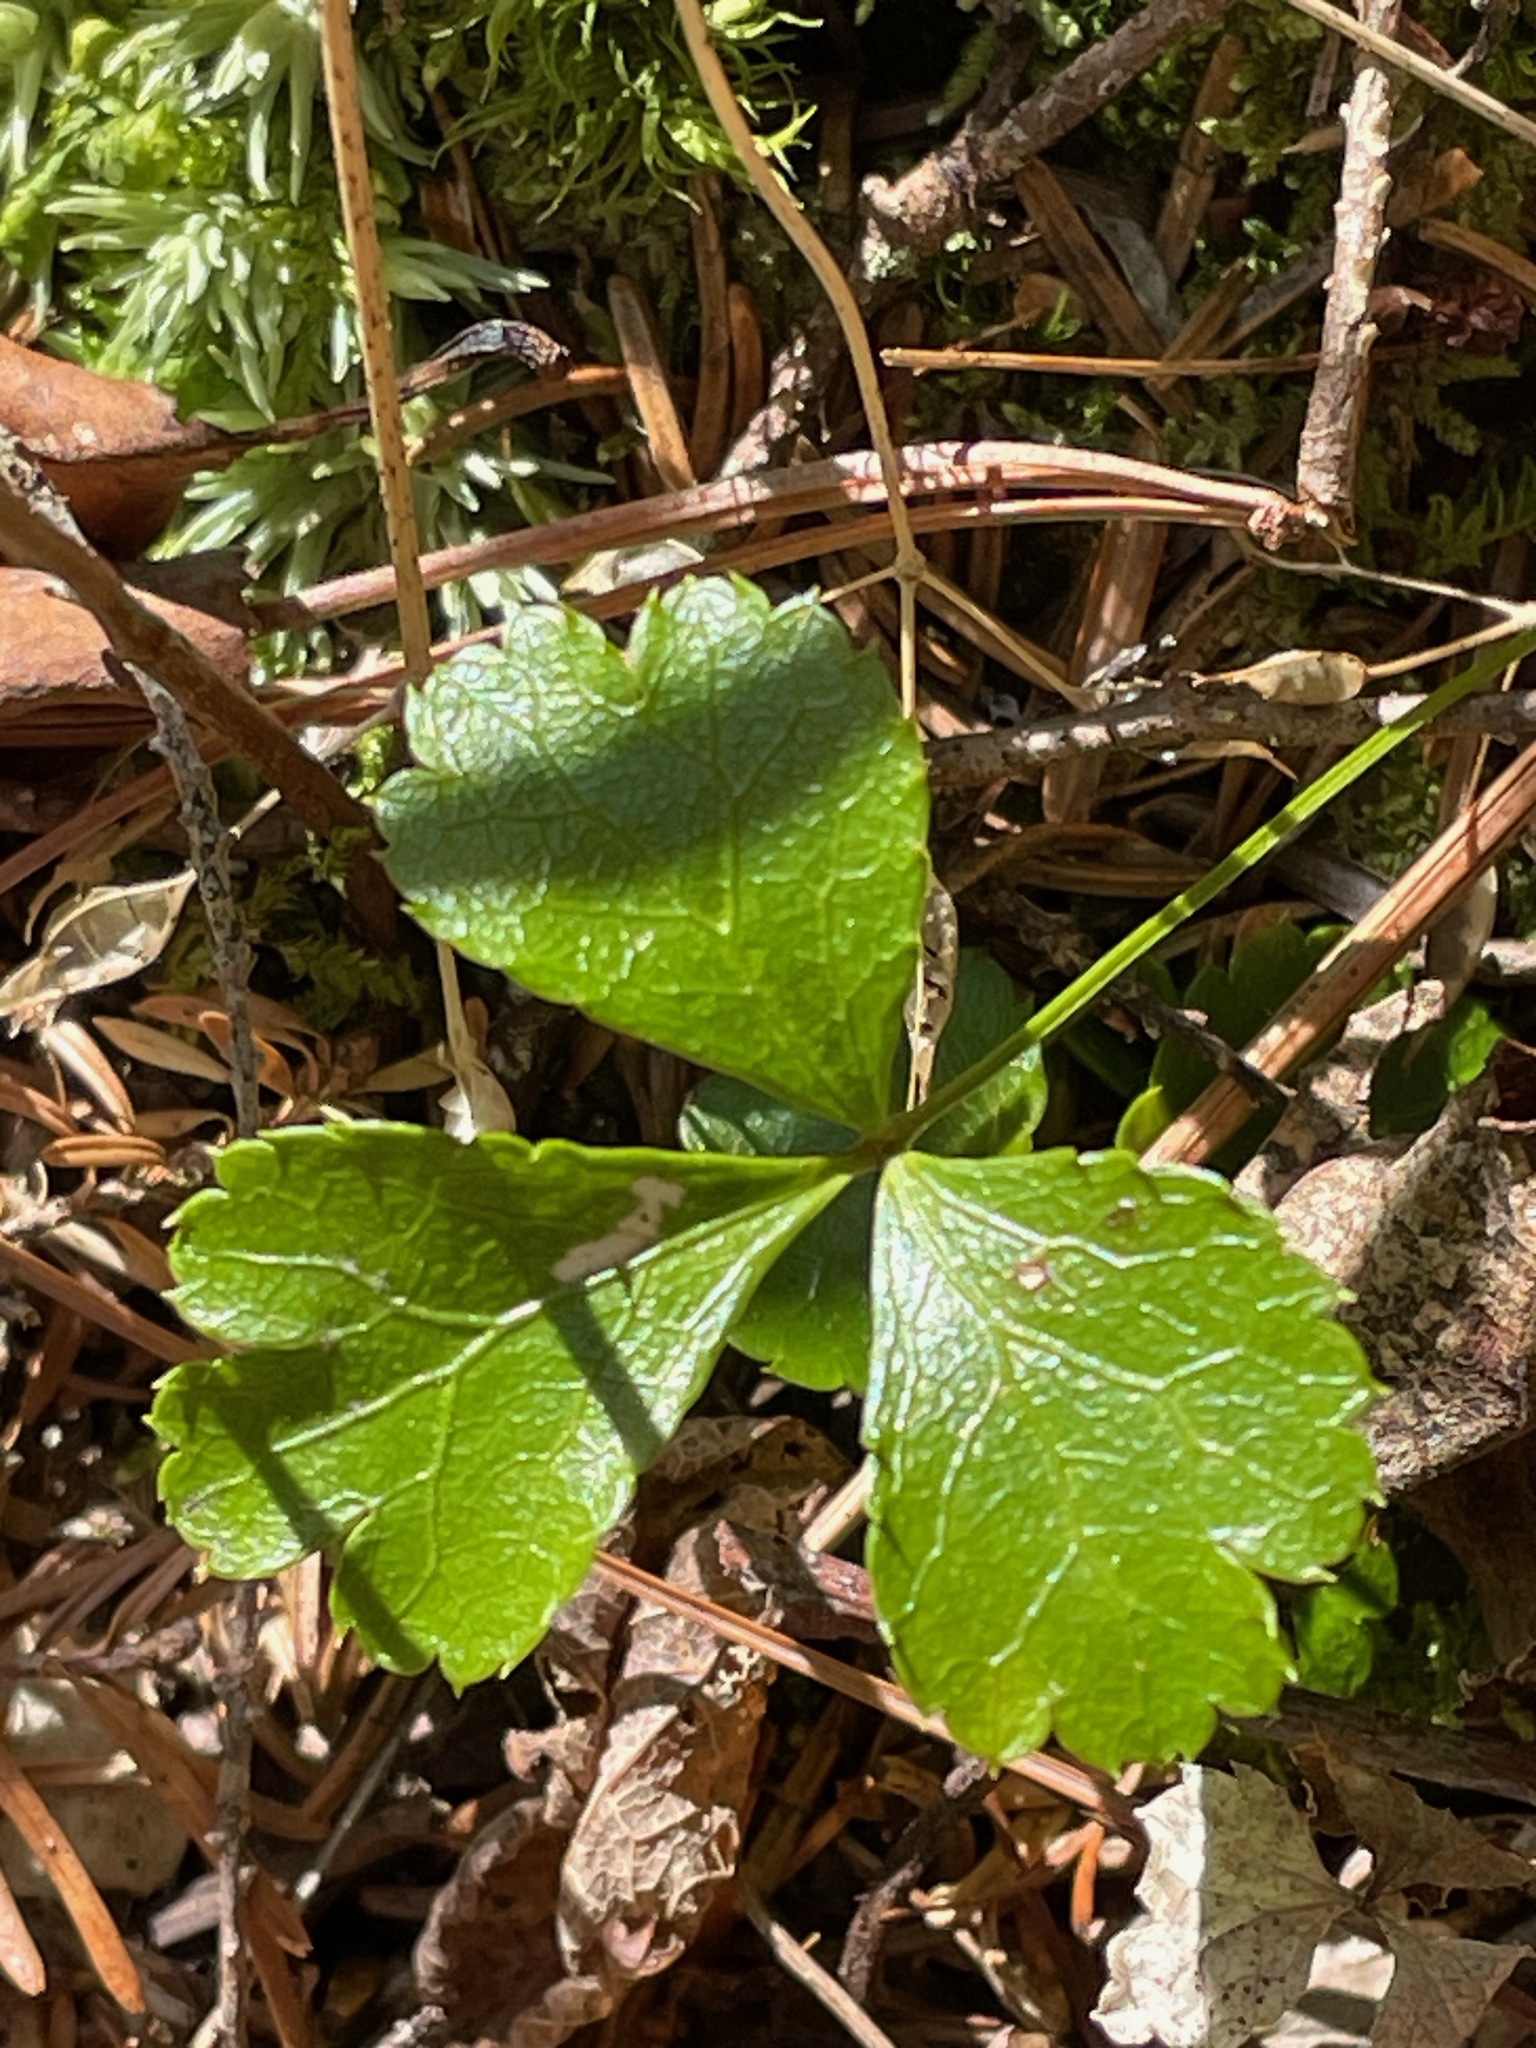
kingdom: Plantae
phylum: Tracheophyta
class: Magnoliopsida
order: Ranunculales
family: Ranunculaceae
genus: Coptis
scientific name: Coptis trifolia
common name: Canker-root
